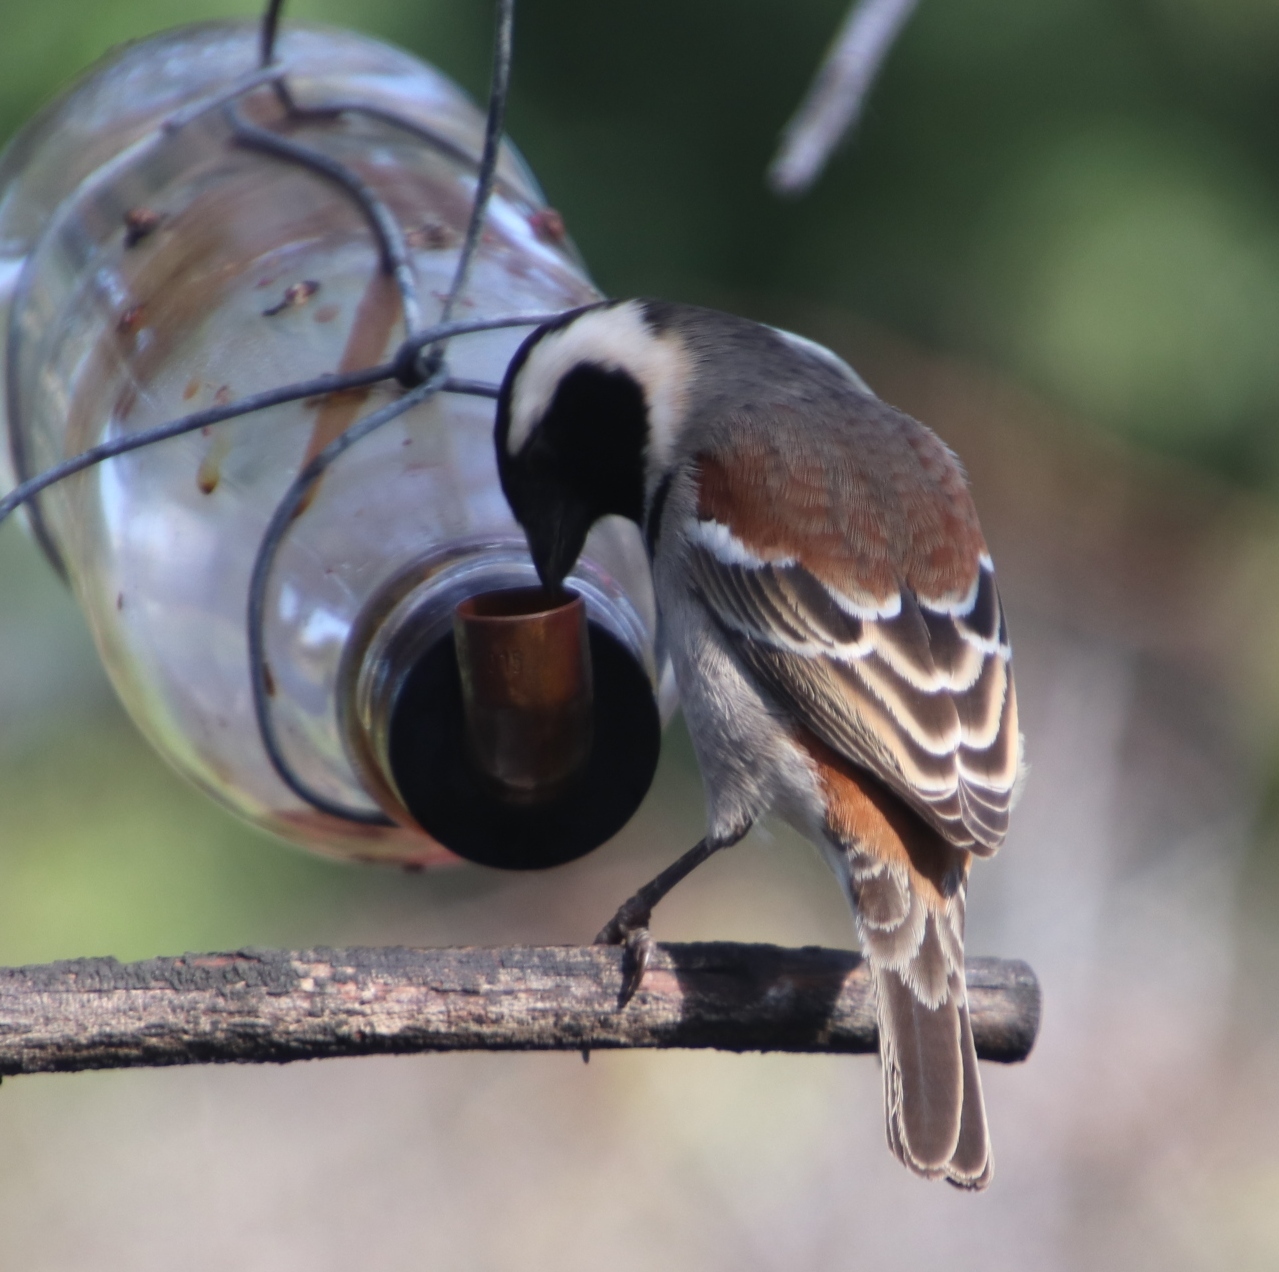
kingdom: Animalia
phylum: Chordata
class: Aves
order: Passeriformes
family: Passeridae
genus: Passer
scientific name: Passer melanurus
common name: Cape sparrow
